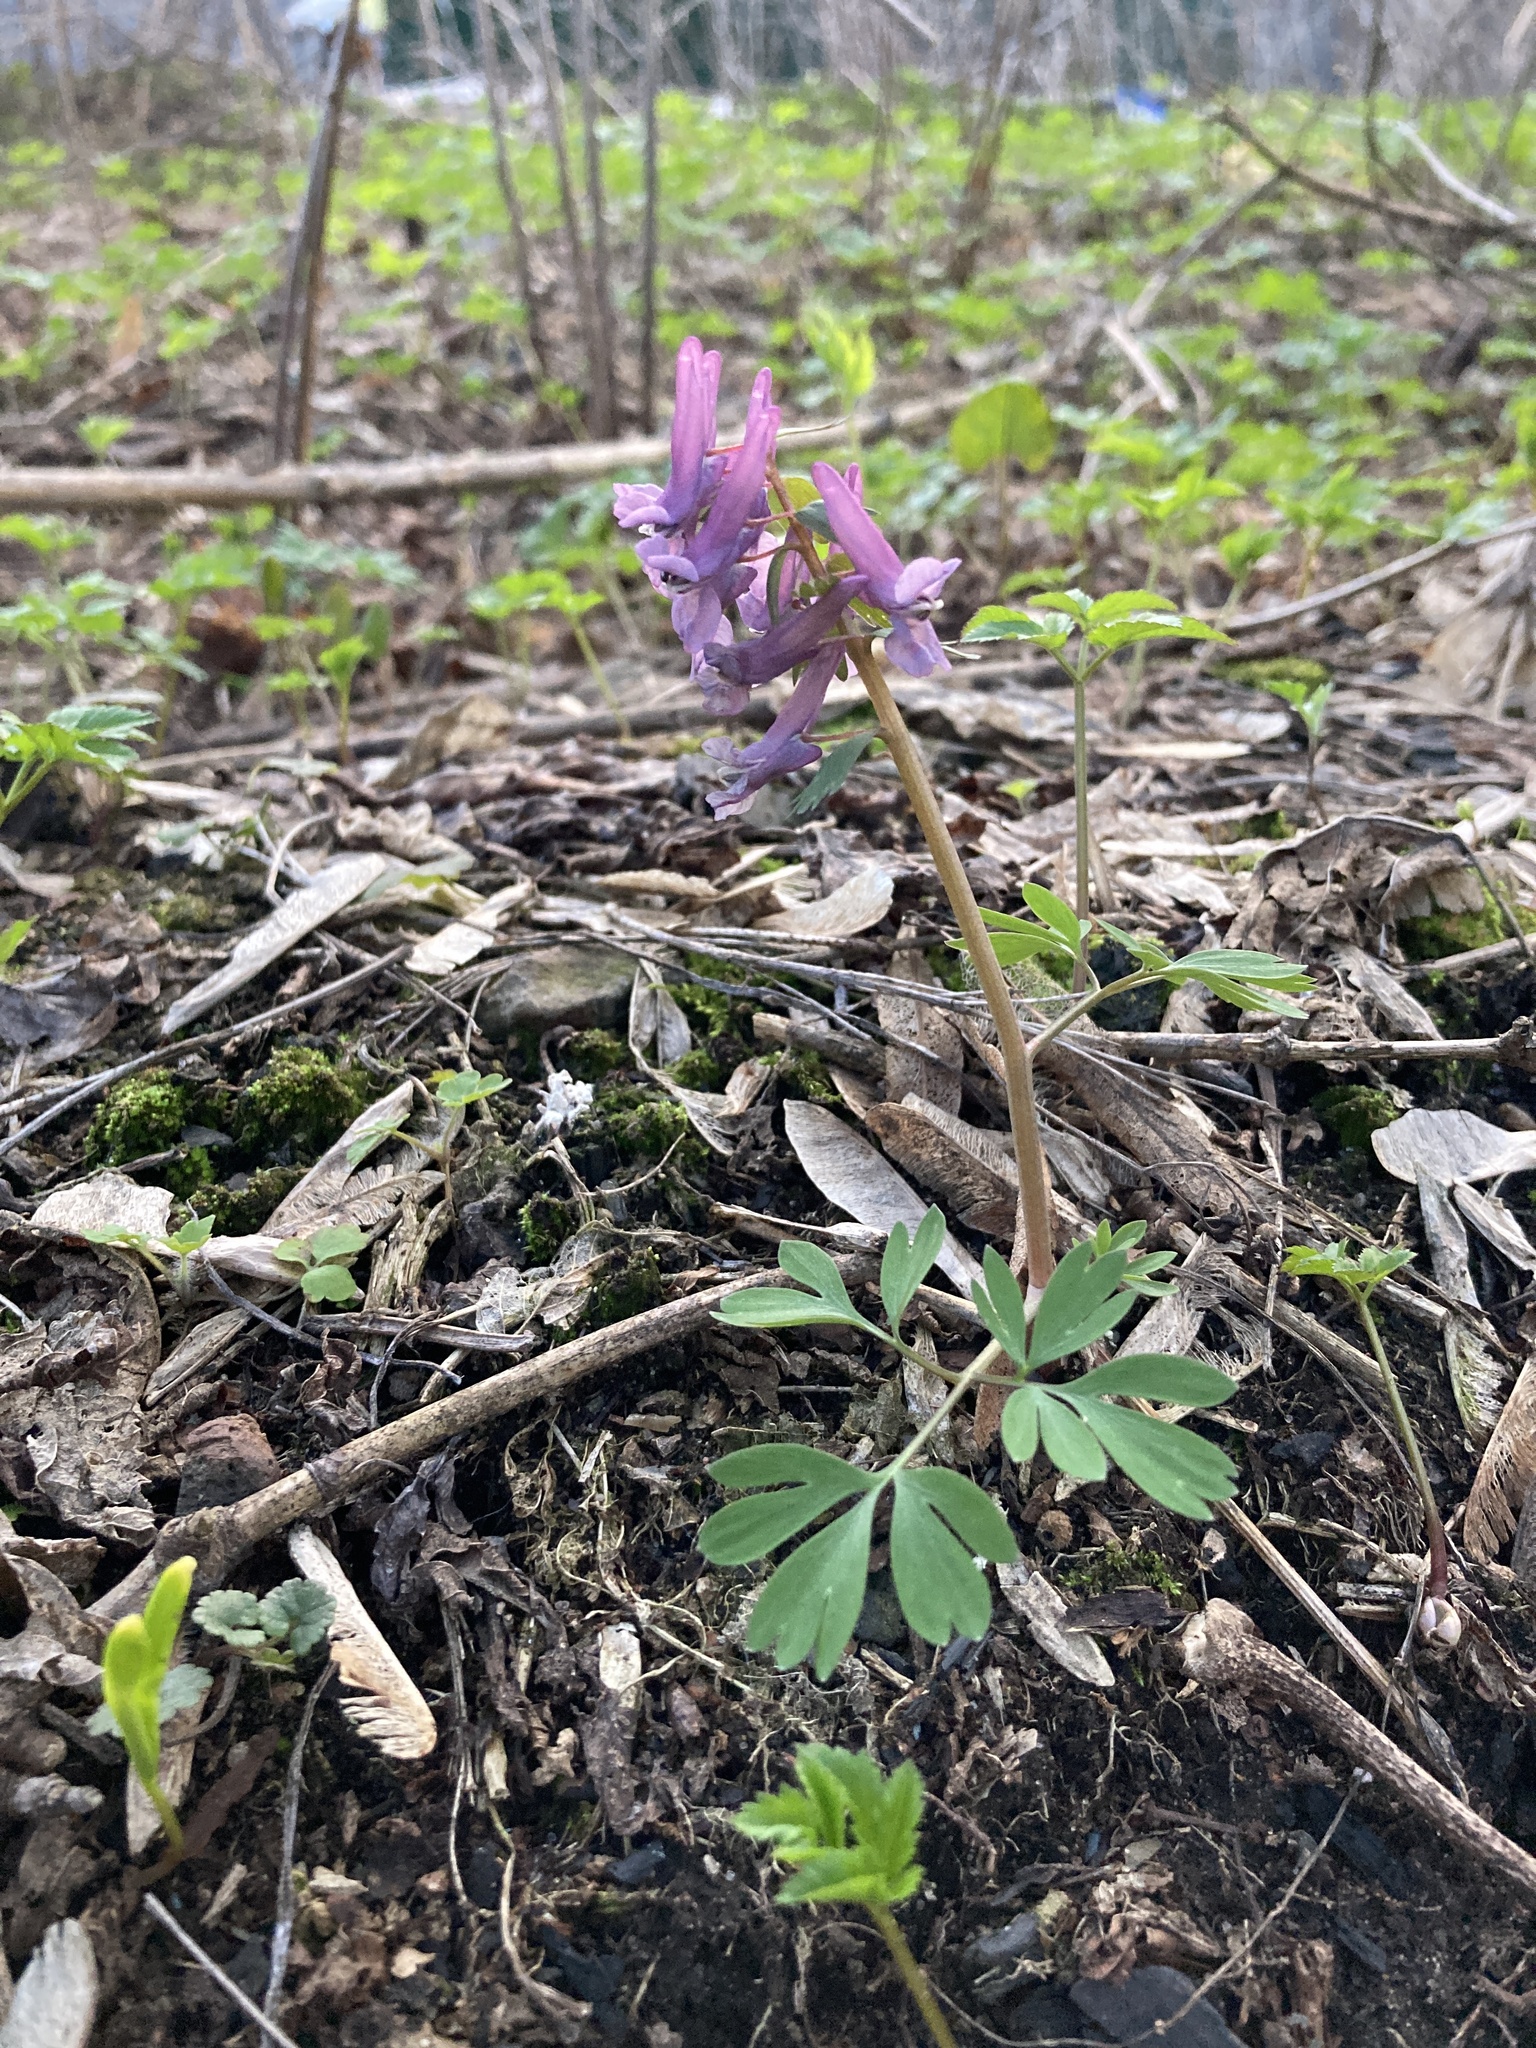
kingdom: Plantae
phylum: Tracheophyta
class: Magnoliopsida
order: Ranunculales
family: Papaveraceae
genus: Corydalis
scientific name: Corydalis solida
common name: Bird-in-a-bush
